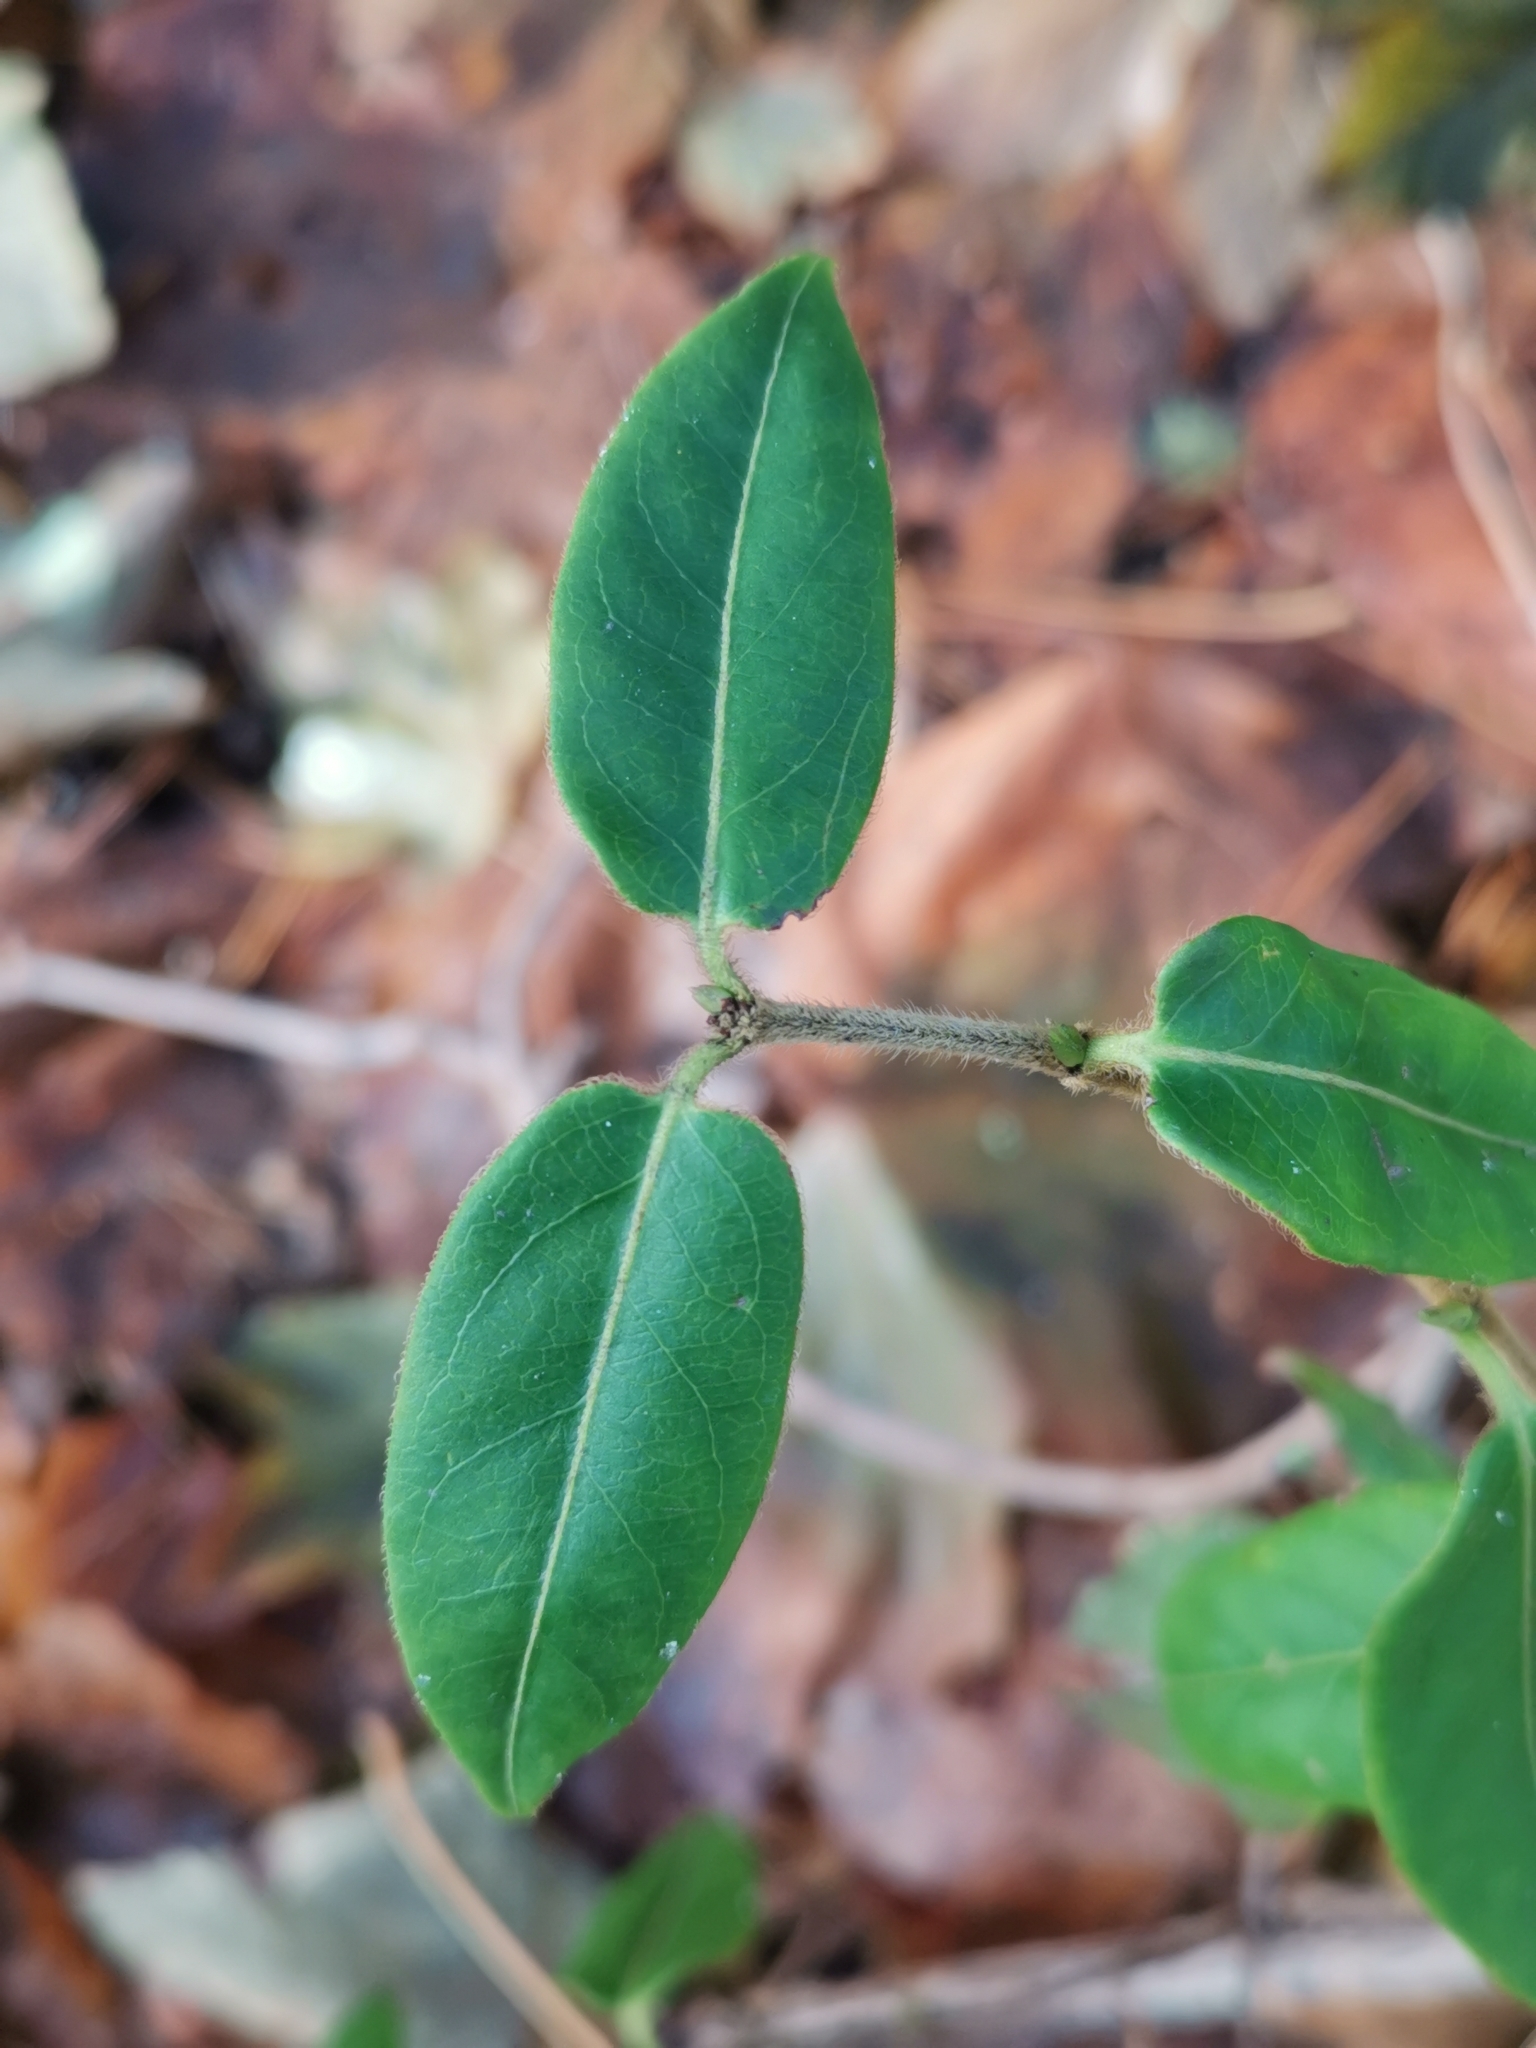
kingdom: Plantae
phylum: Tracheophyta
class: Magnoliopsida
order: Dipsacales
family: Caprifoliaceae
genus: Lonicera
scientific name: Lonicera acuminata
